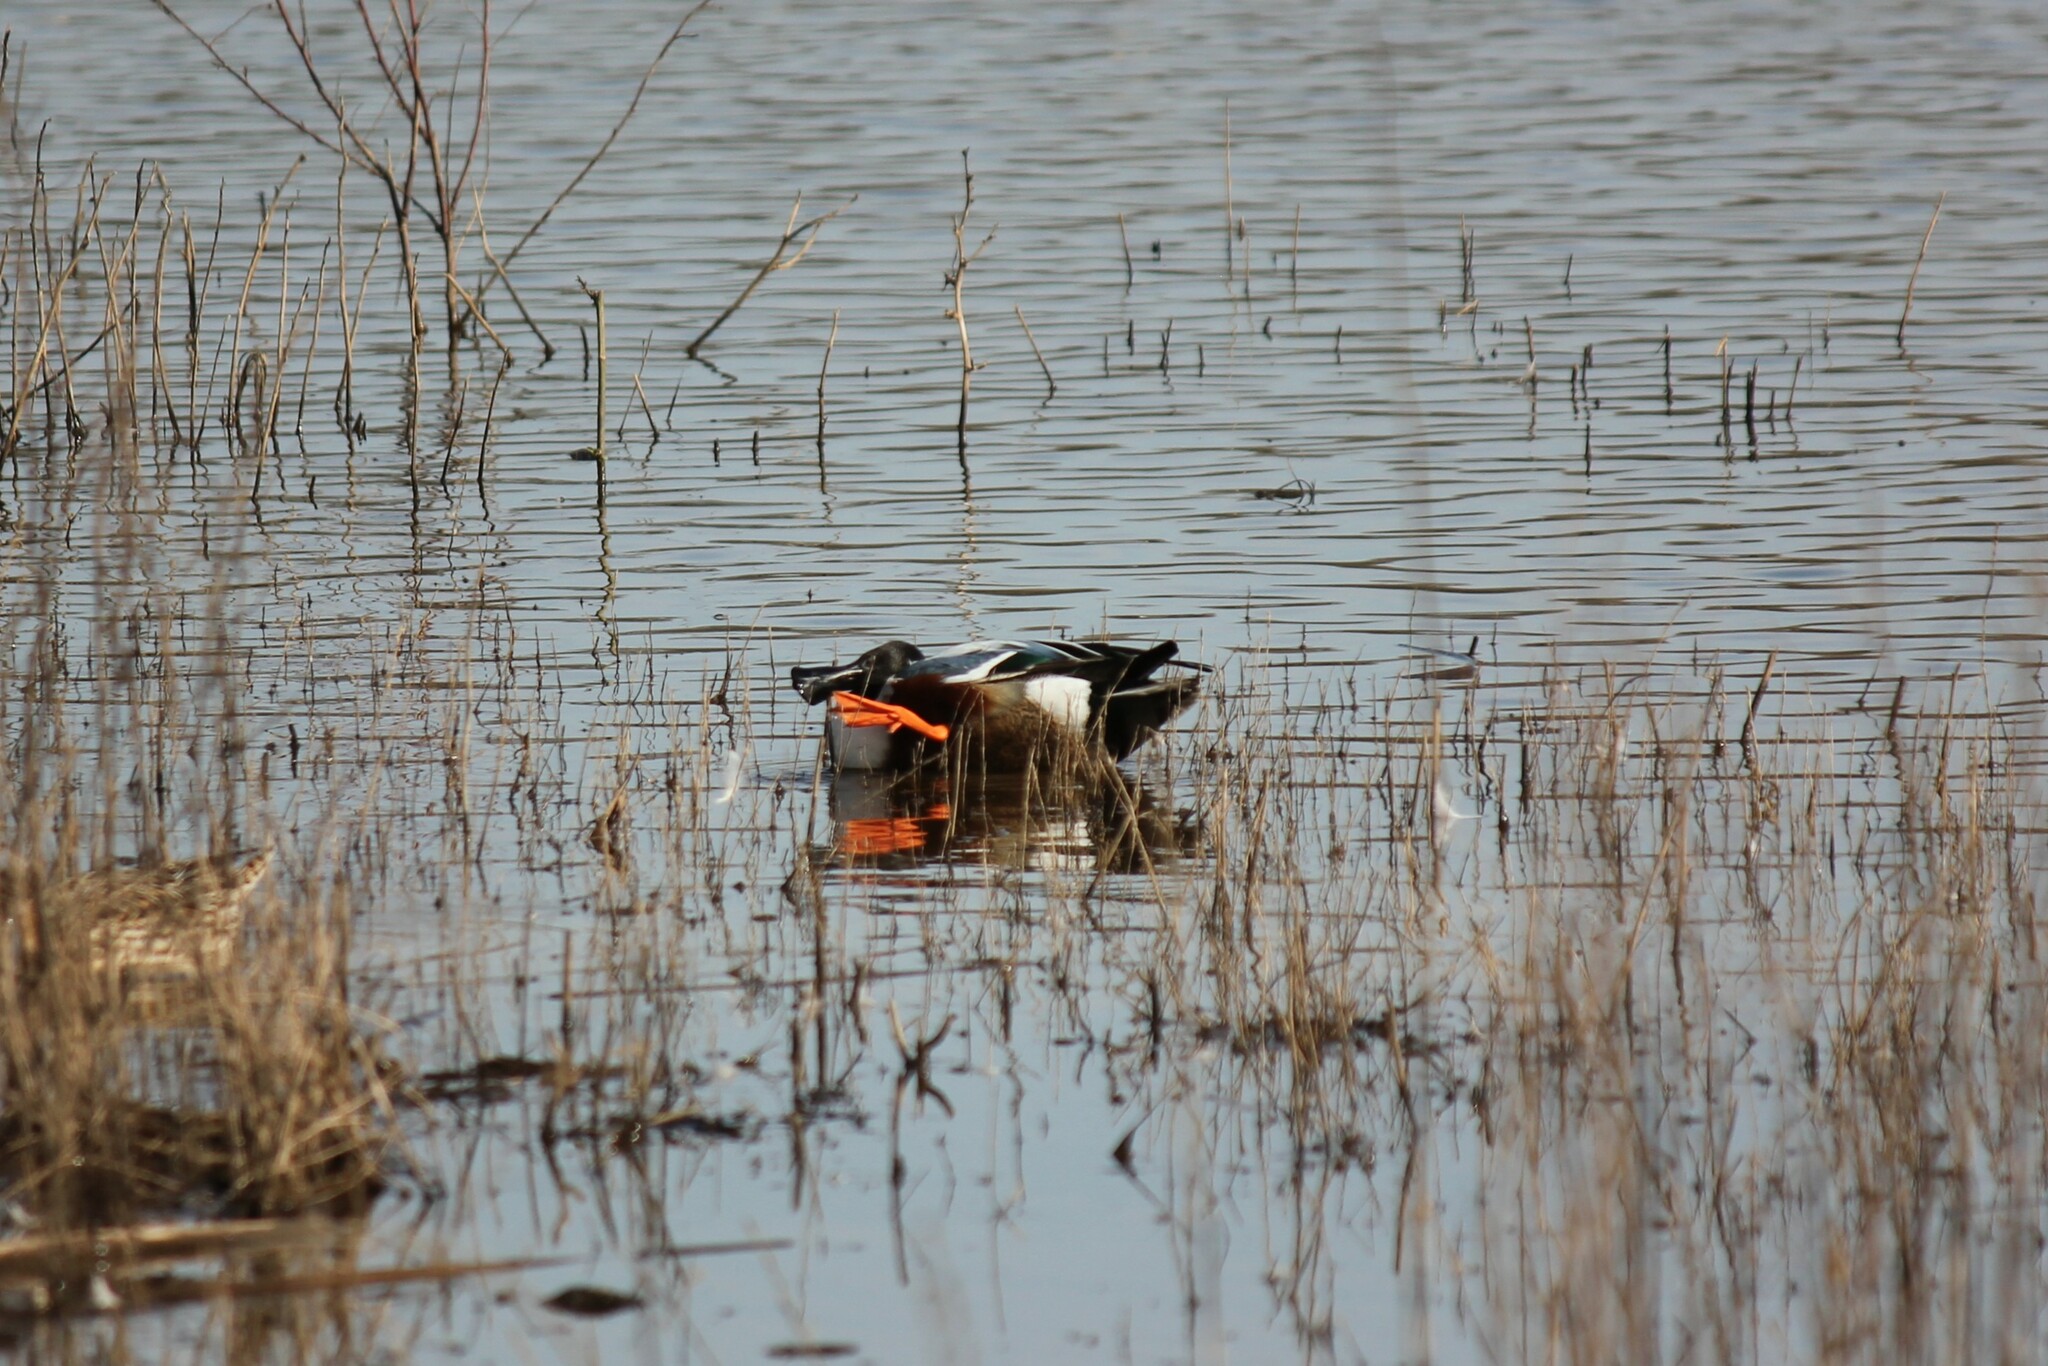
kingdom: Animalia
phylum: Chordata
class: Aves
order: Anseriformes
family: Anatidae
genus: Spatula
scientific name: Spatula clypeata
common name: Northern shoveler
